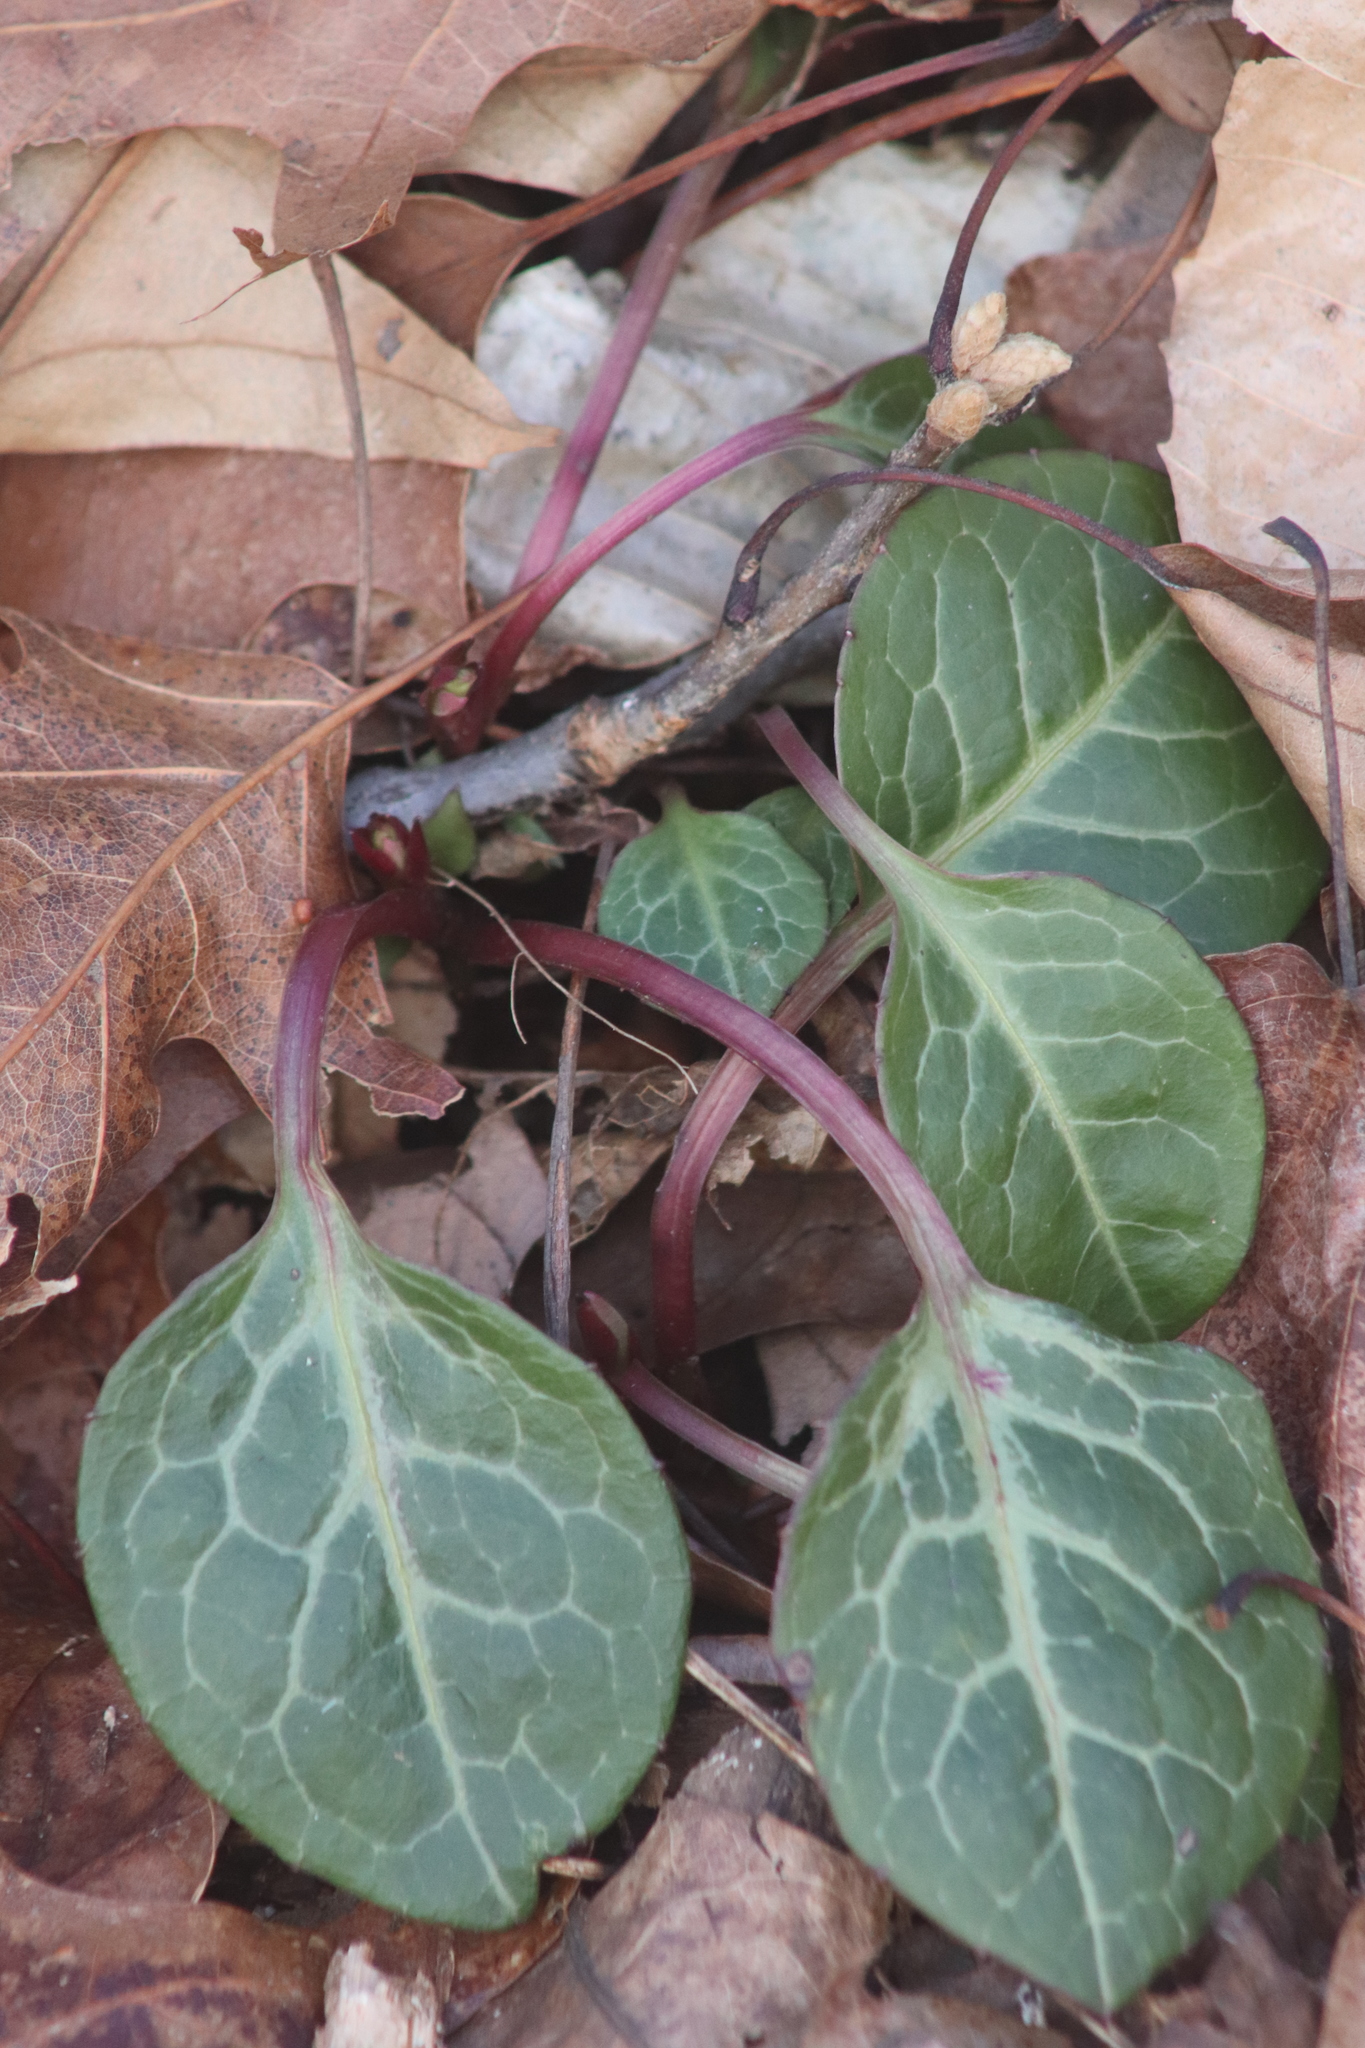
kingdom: Plantae
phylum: Tracheophyta
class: Magnoliopsida
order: Ericales
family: Ericaceae
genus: Pyrola
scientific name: Pyrola americana
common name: American wintergreen
